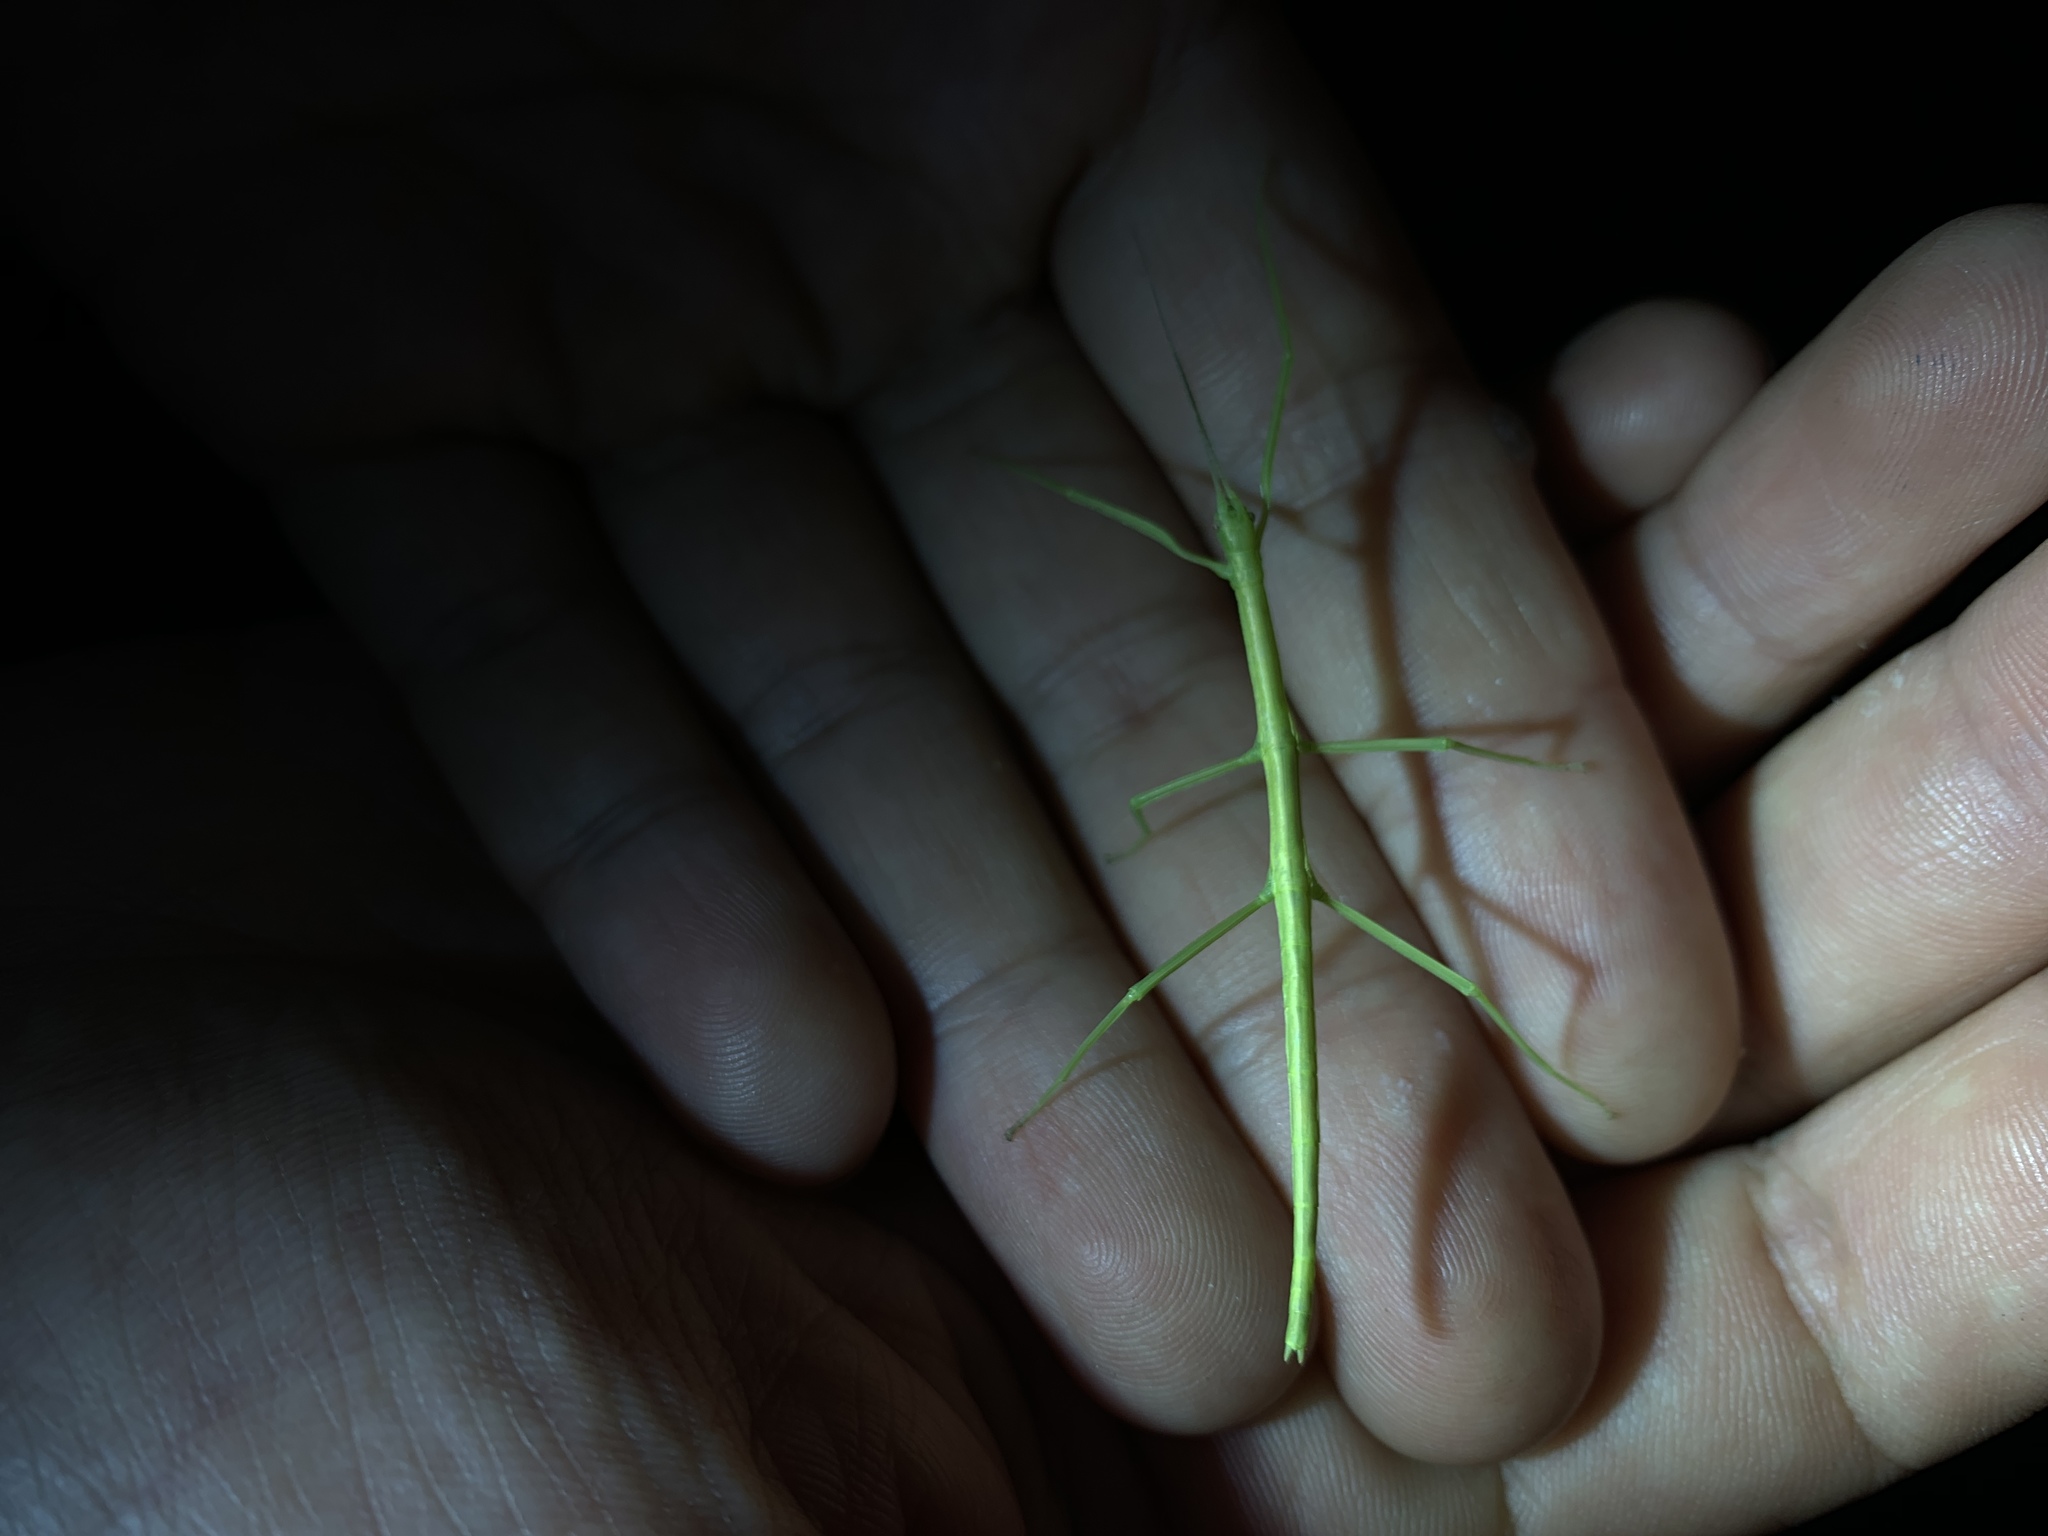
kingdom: Animalia
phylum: Arthropoda
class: Insecta
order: Phasmida
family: Diapheromeridae
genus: Diapheromera
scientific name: Diapheromera femorata
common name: Common american walkingstick
